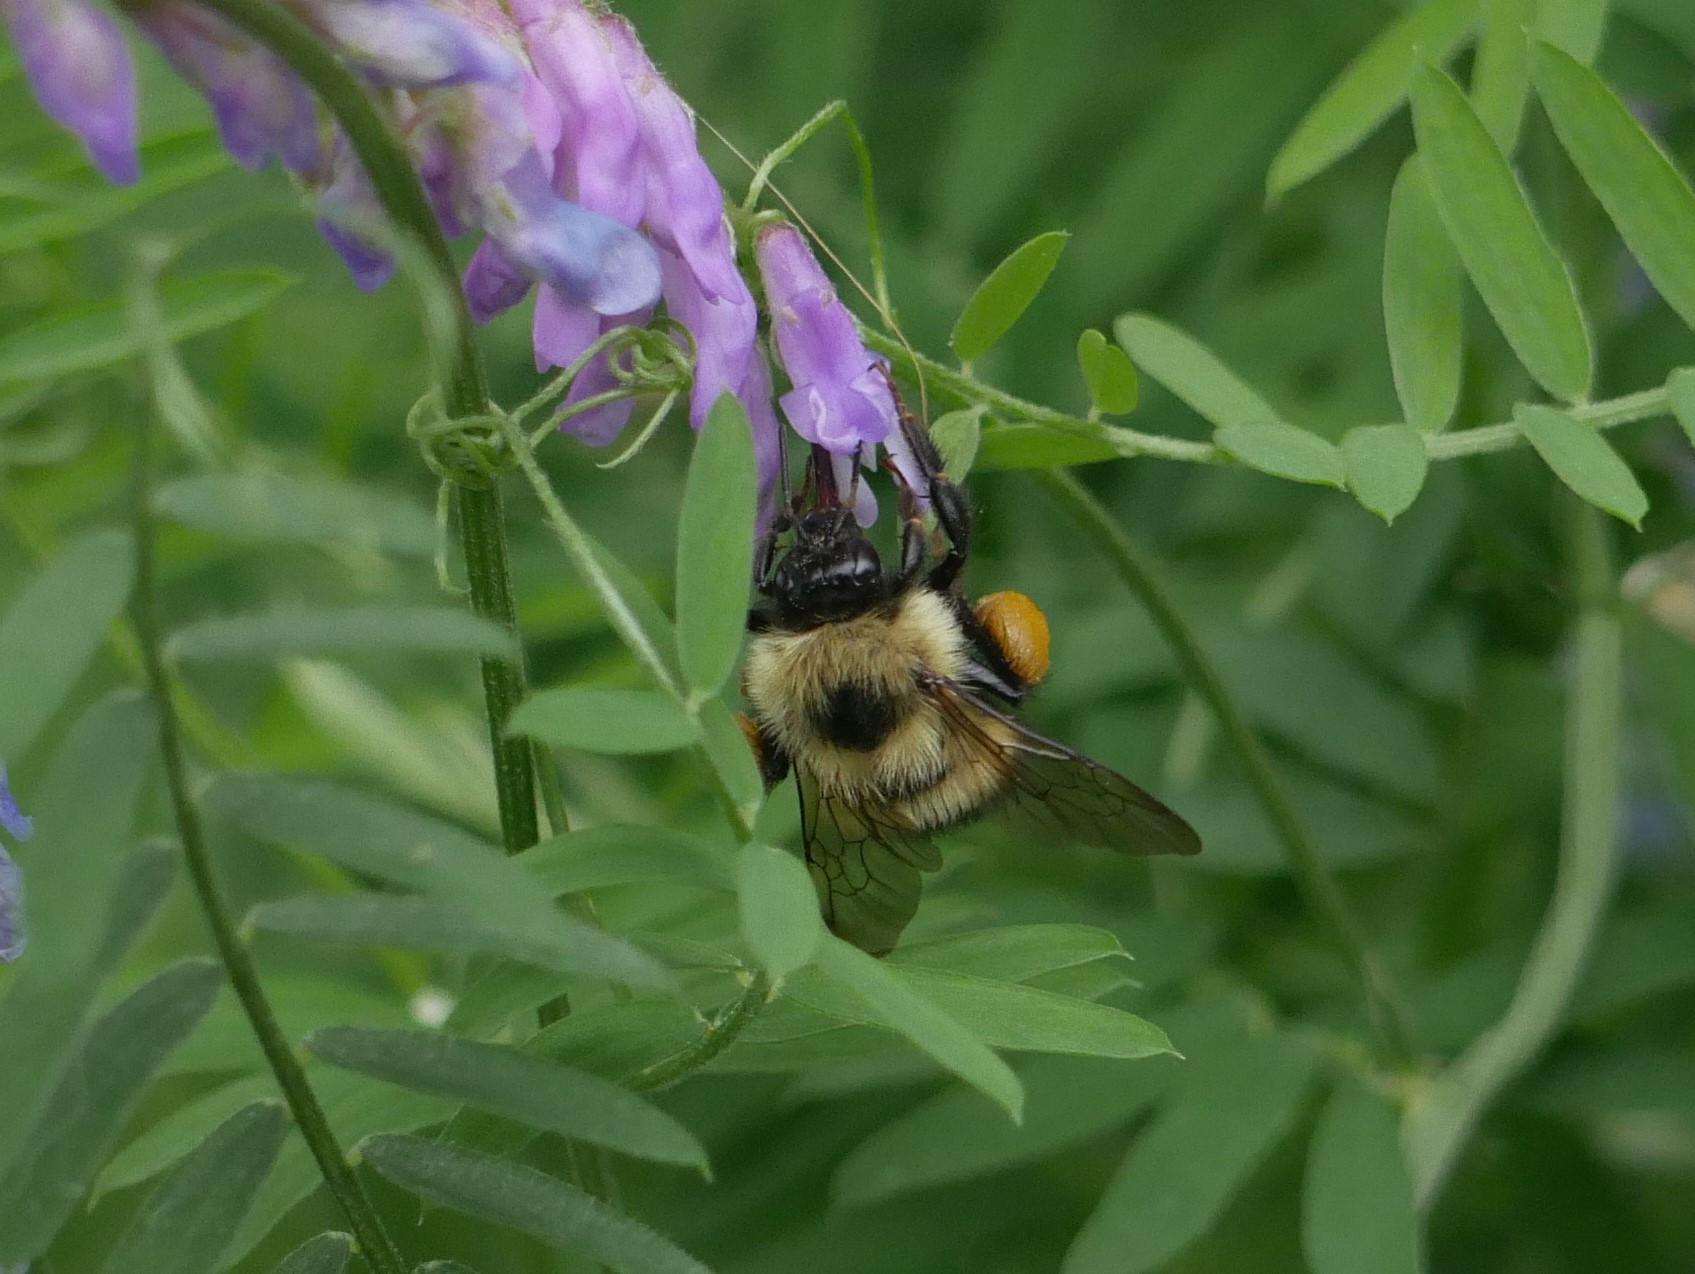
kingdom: Animalia
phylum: Arthropoda
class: Insecta
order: Hymenoptera
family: Apidae
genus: Bombus
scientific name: Bombus vagans
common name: Half-black bumble bee
